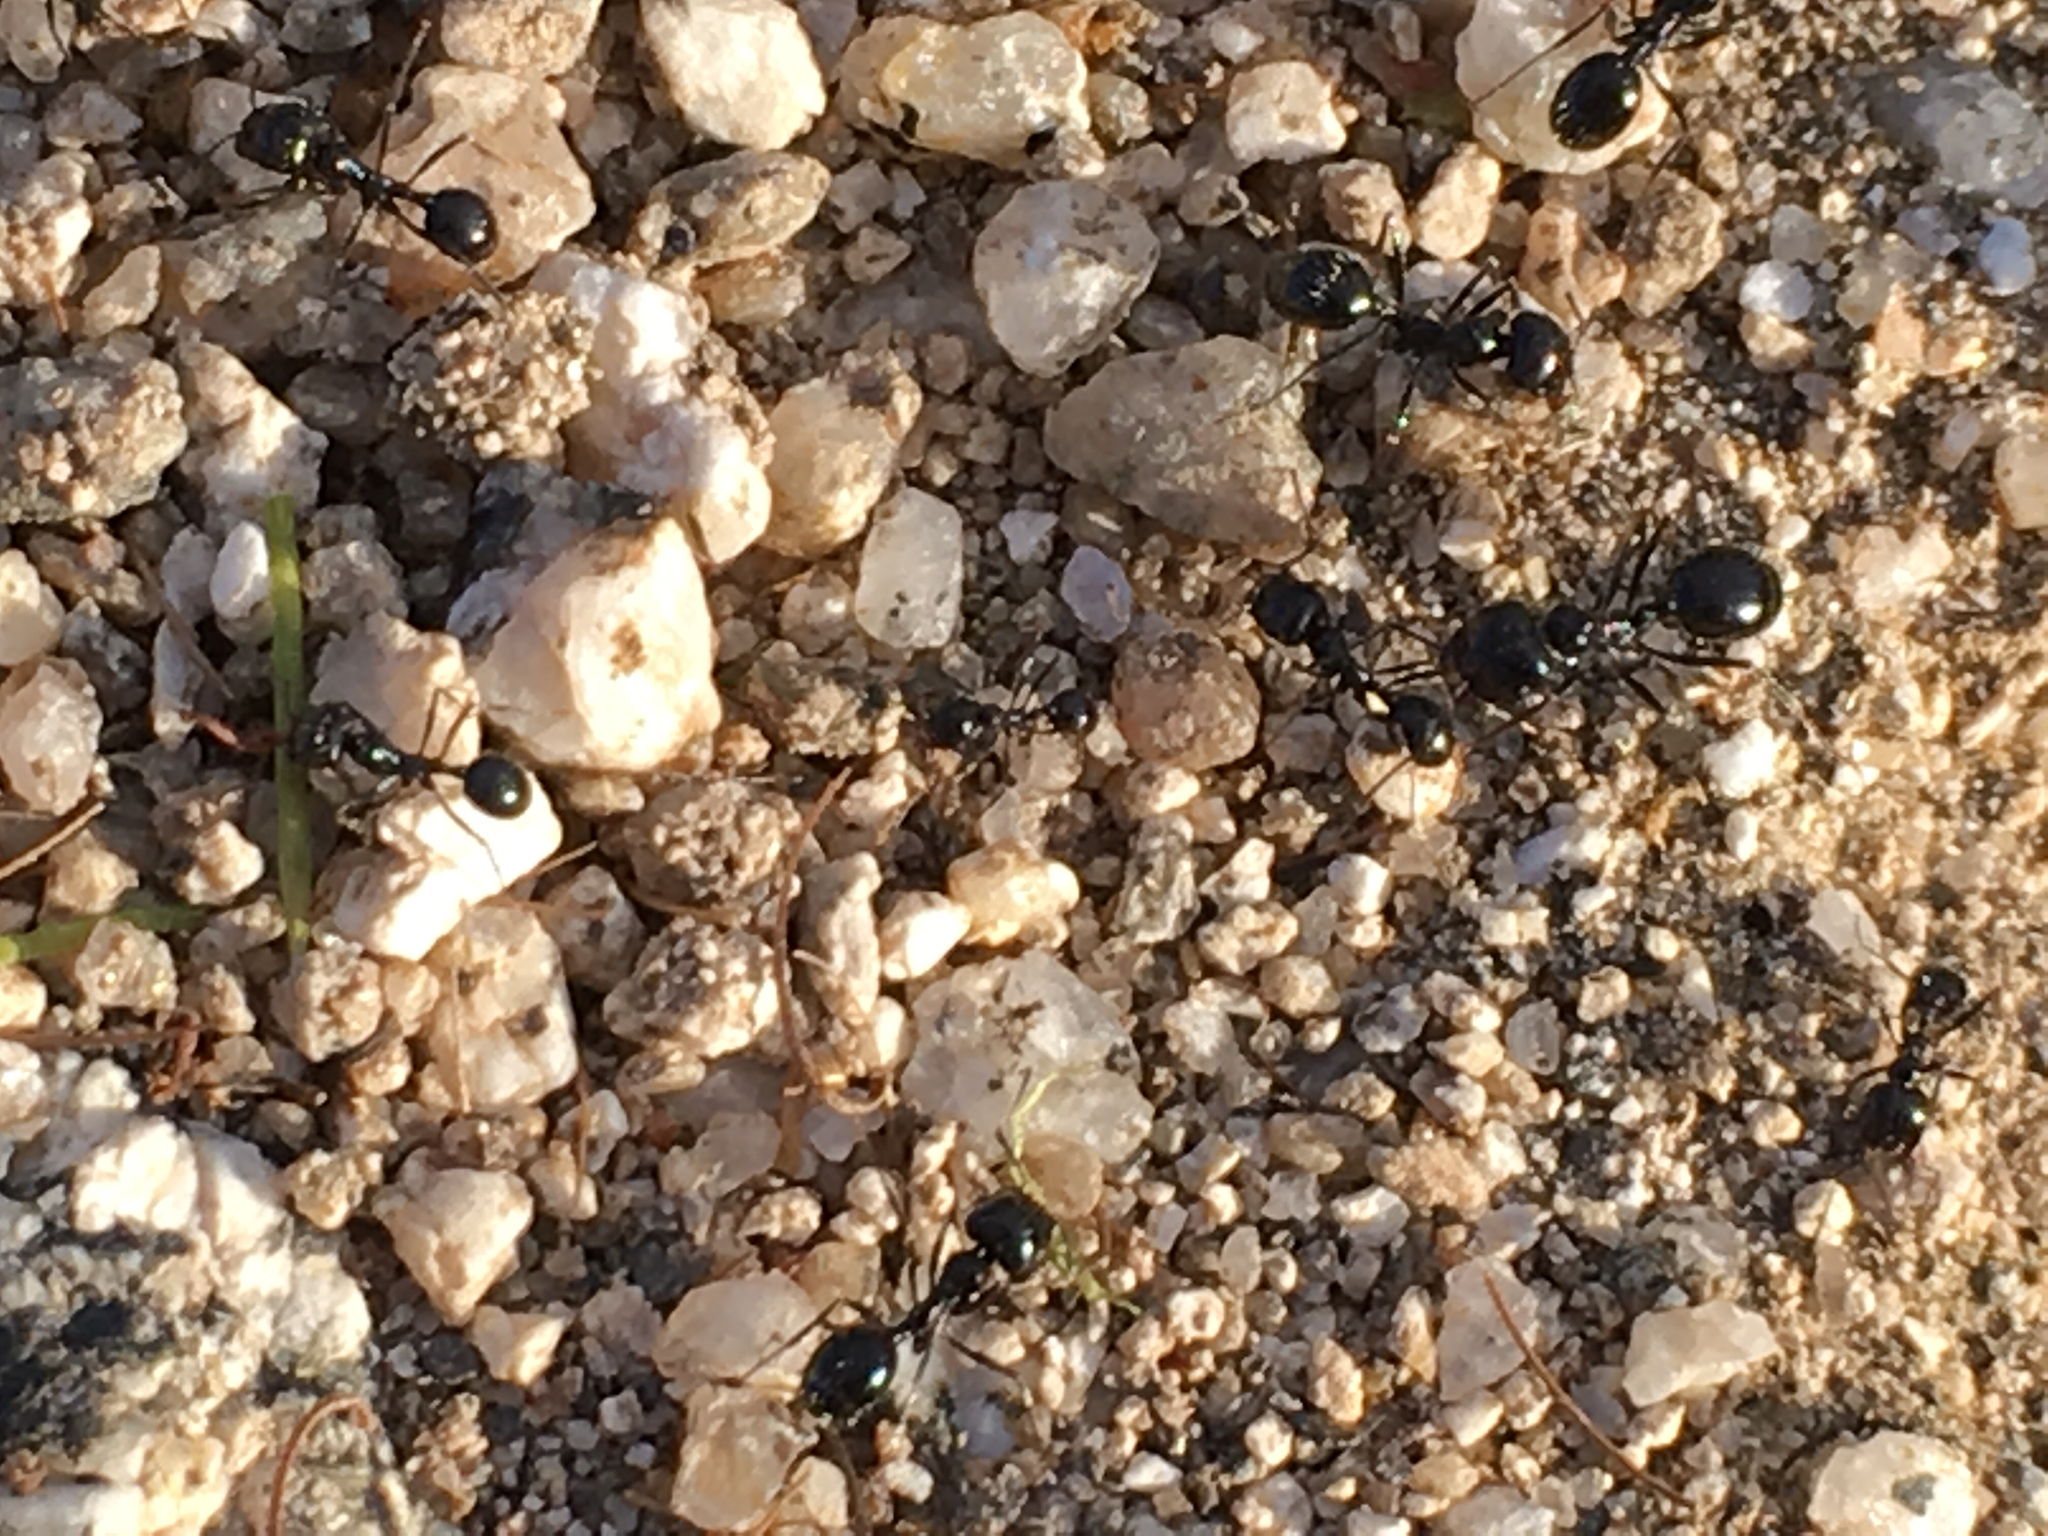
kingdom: Animalia
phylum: Arthropoda
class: Insecta
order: Hymenoptera
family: Formicidae
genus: Messor
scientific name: Messor pergandei
